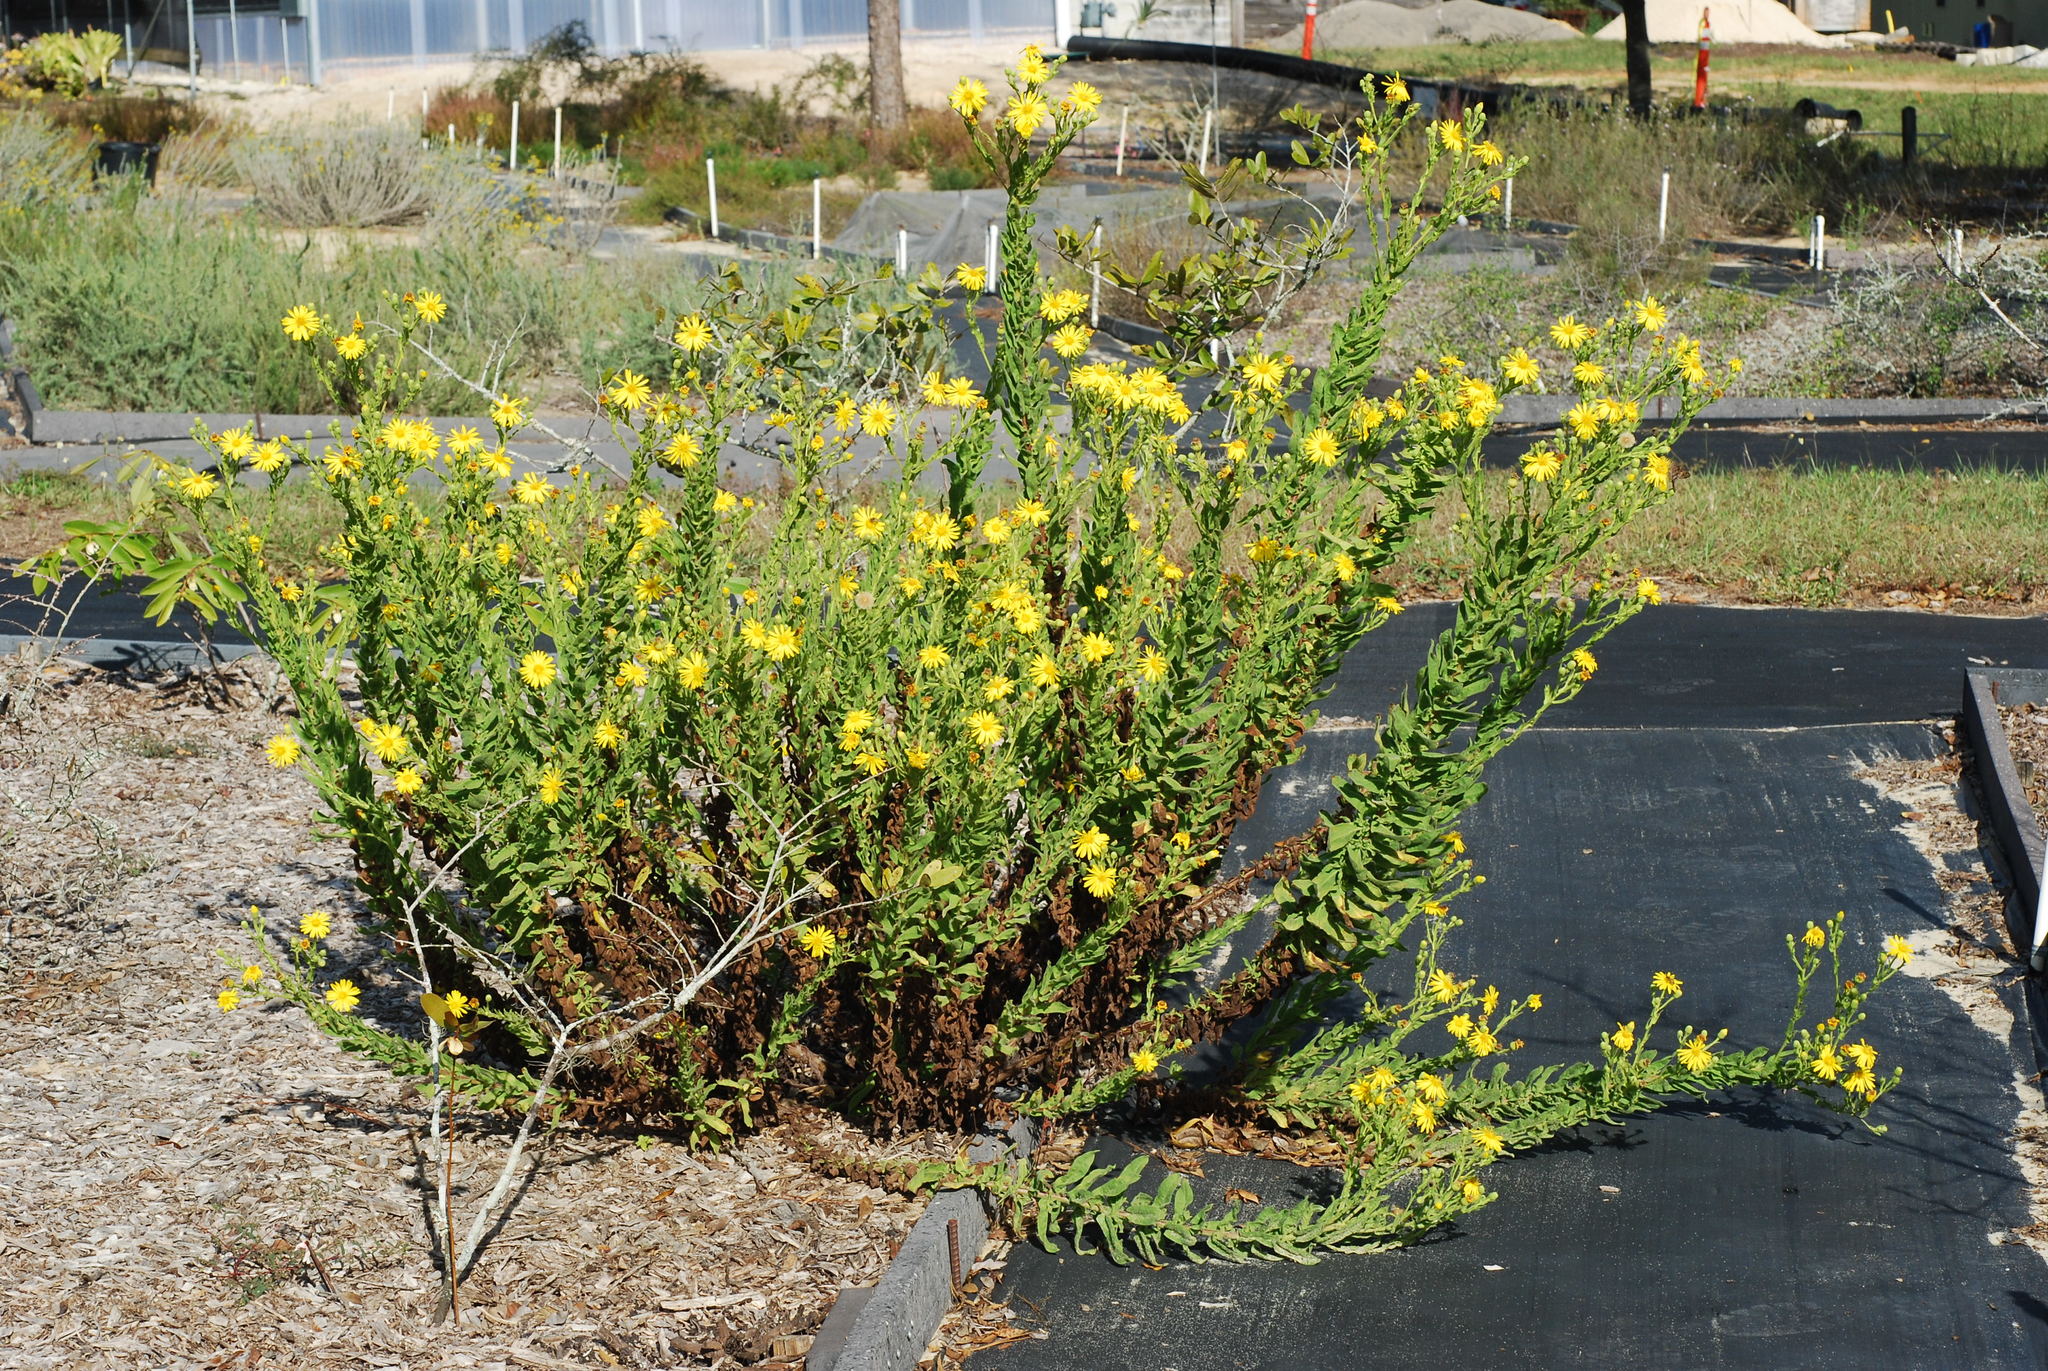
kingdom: Plantae
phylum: Tracheophyta
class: Magnoliopsida
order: Asterales
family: Asteraceae
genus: Chrysopsis
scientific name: Chrysopsis delaneyi
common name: Delaney's goldenaster
